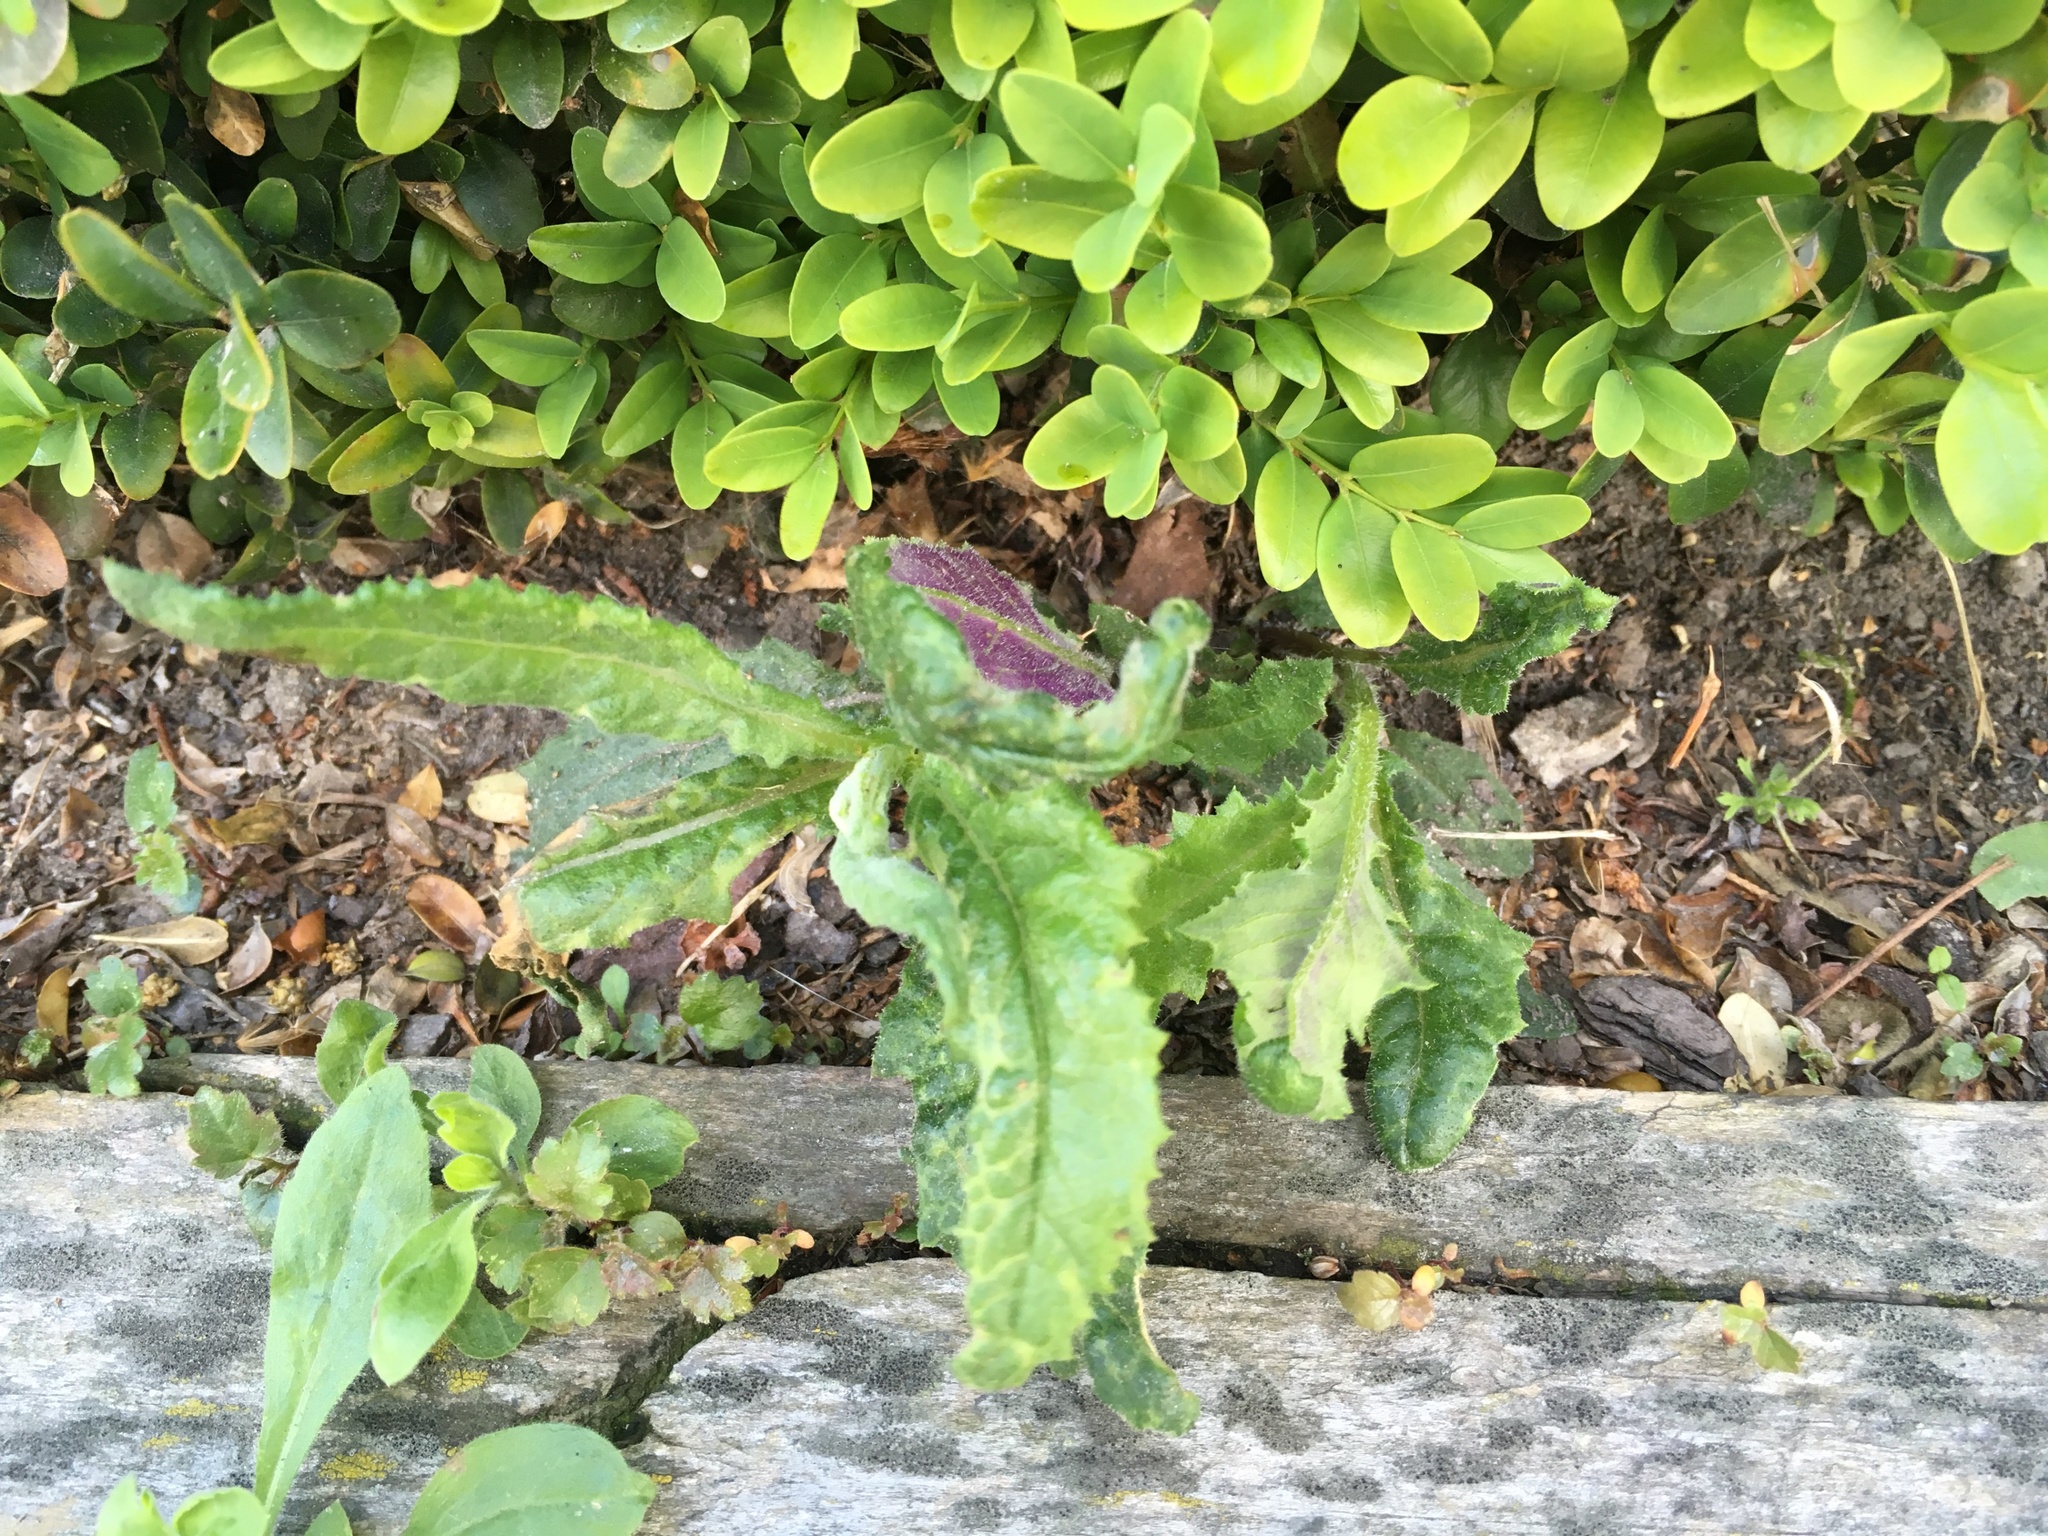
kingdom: Plantae
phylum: Tracheophyta
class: Magnoliopsida
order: Asterales
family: Asteraceae
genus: Senecio
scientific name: Senecio minimus
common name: Toothed fireweed
